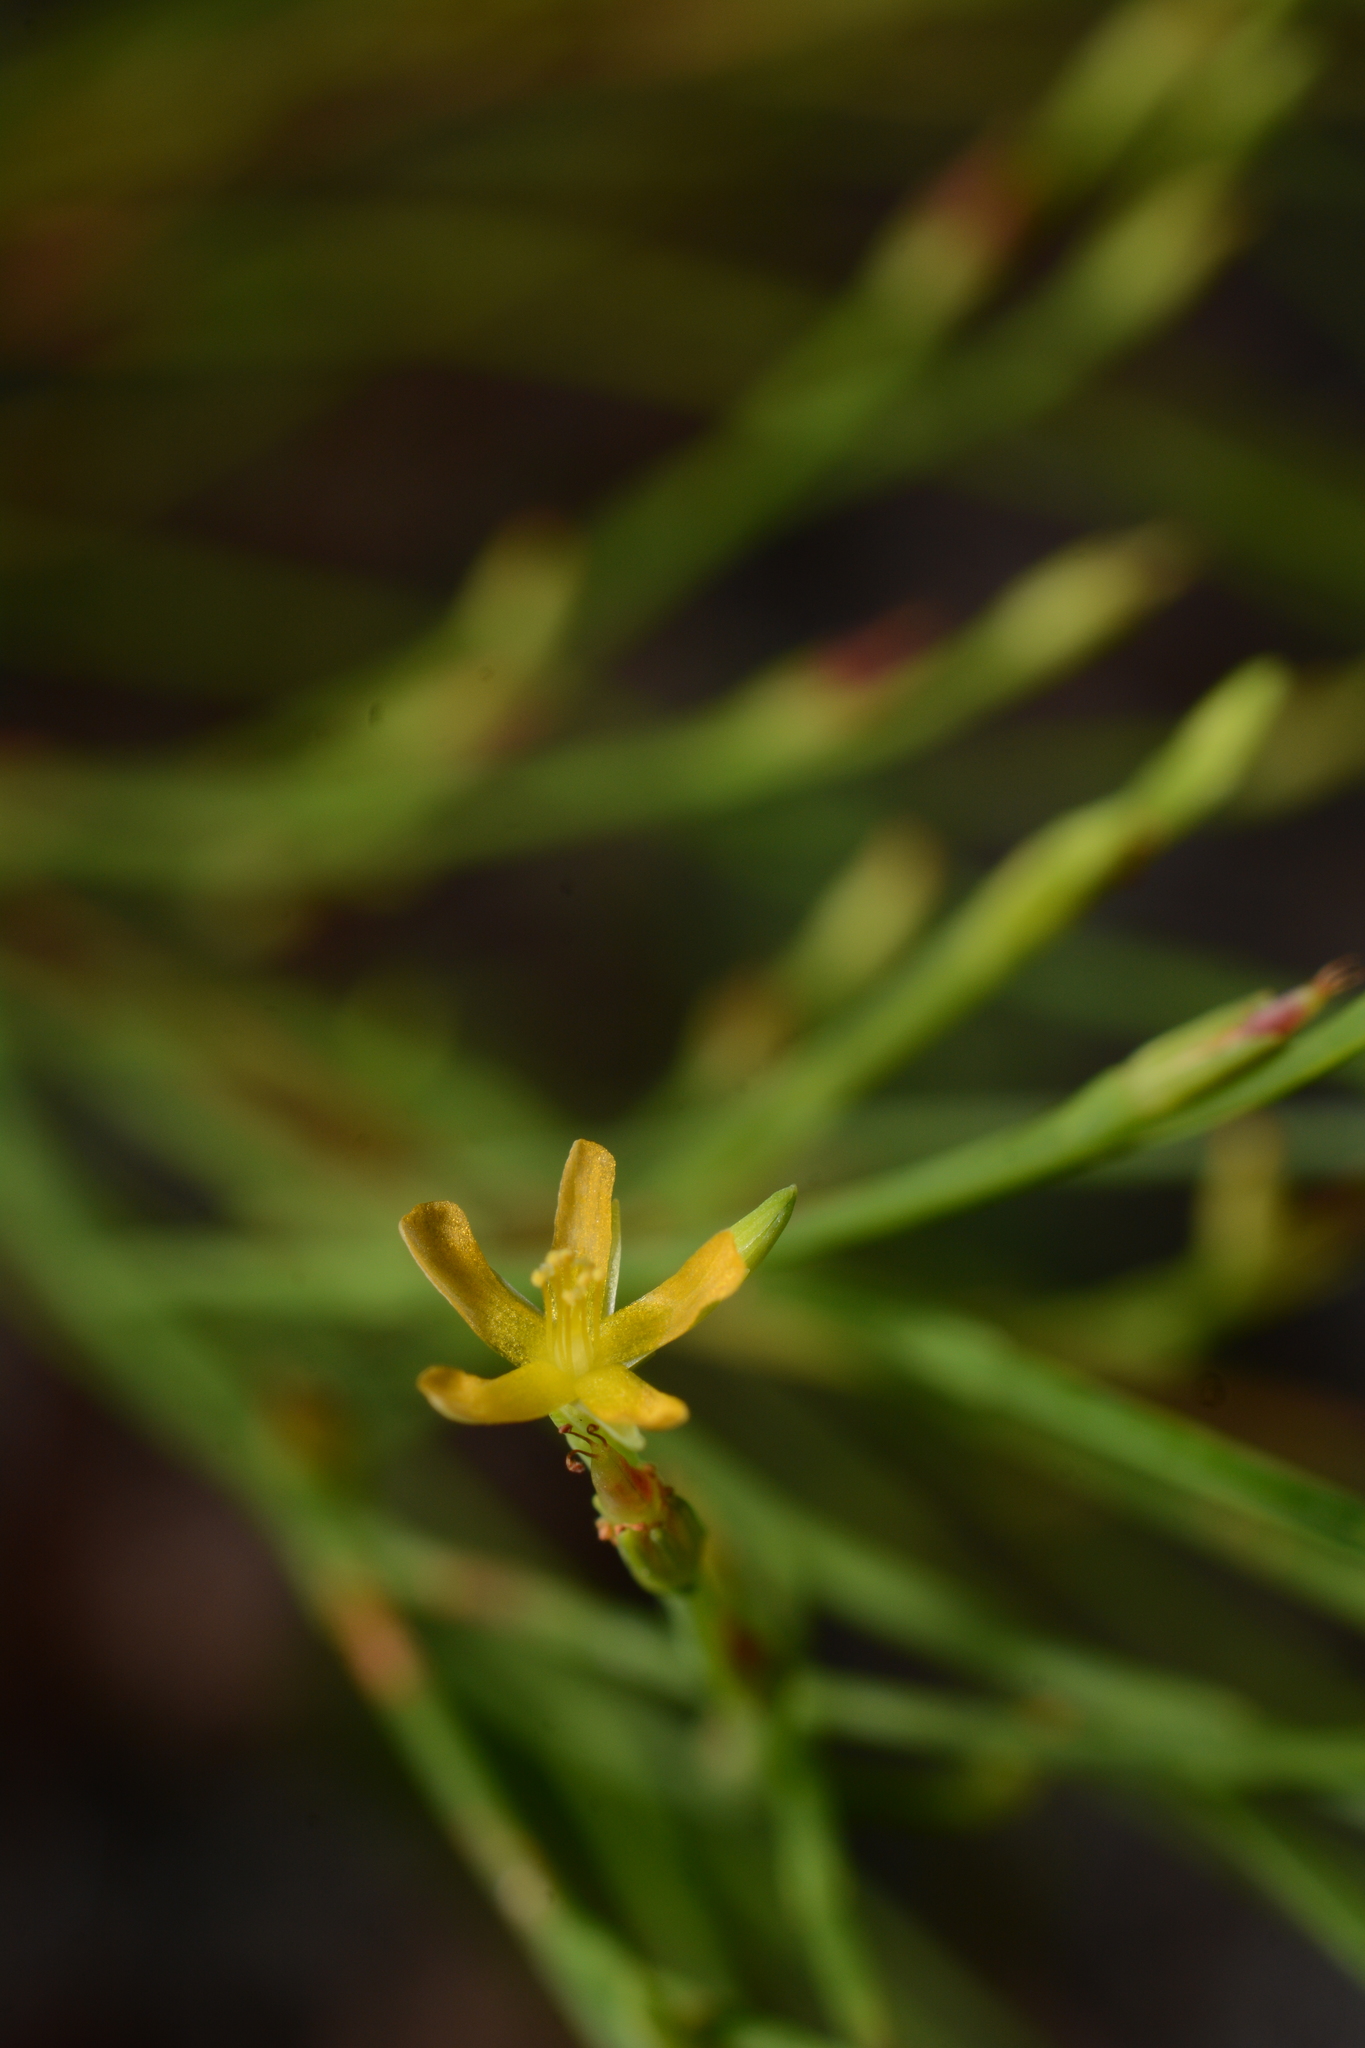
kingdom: Plantae
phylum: Tracheophyta
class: Magnoliopsida
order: Malpighiales
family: Hypericaceae
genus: Hypericum
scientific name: Hypericum gentianoides
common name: Gentian-leaved st. john's-wort
